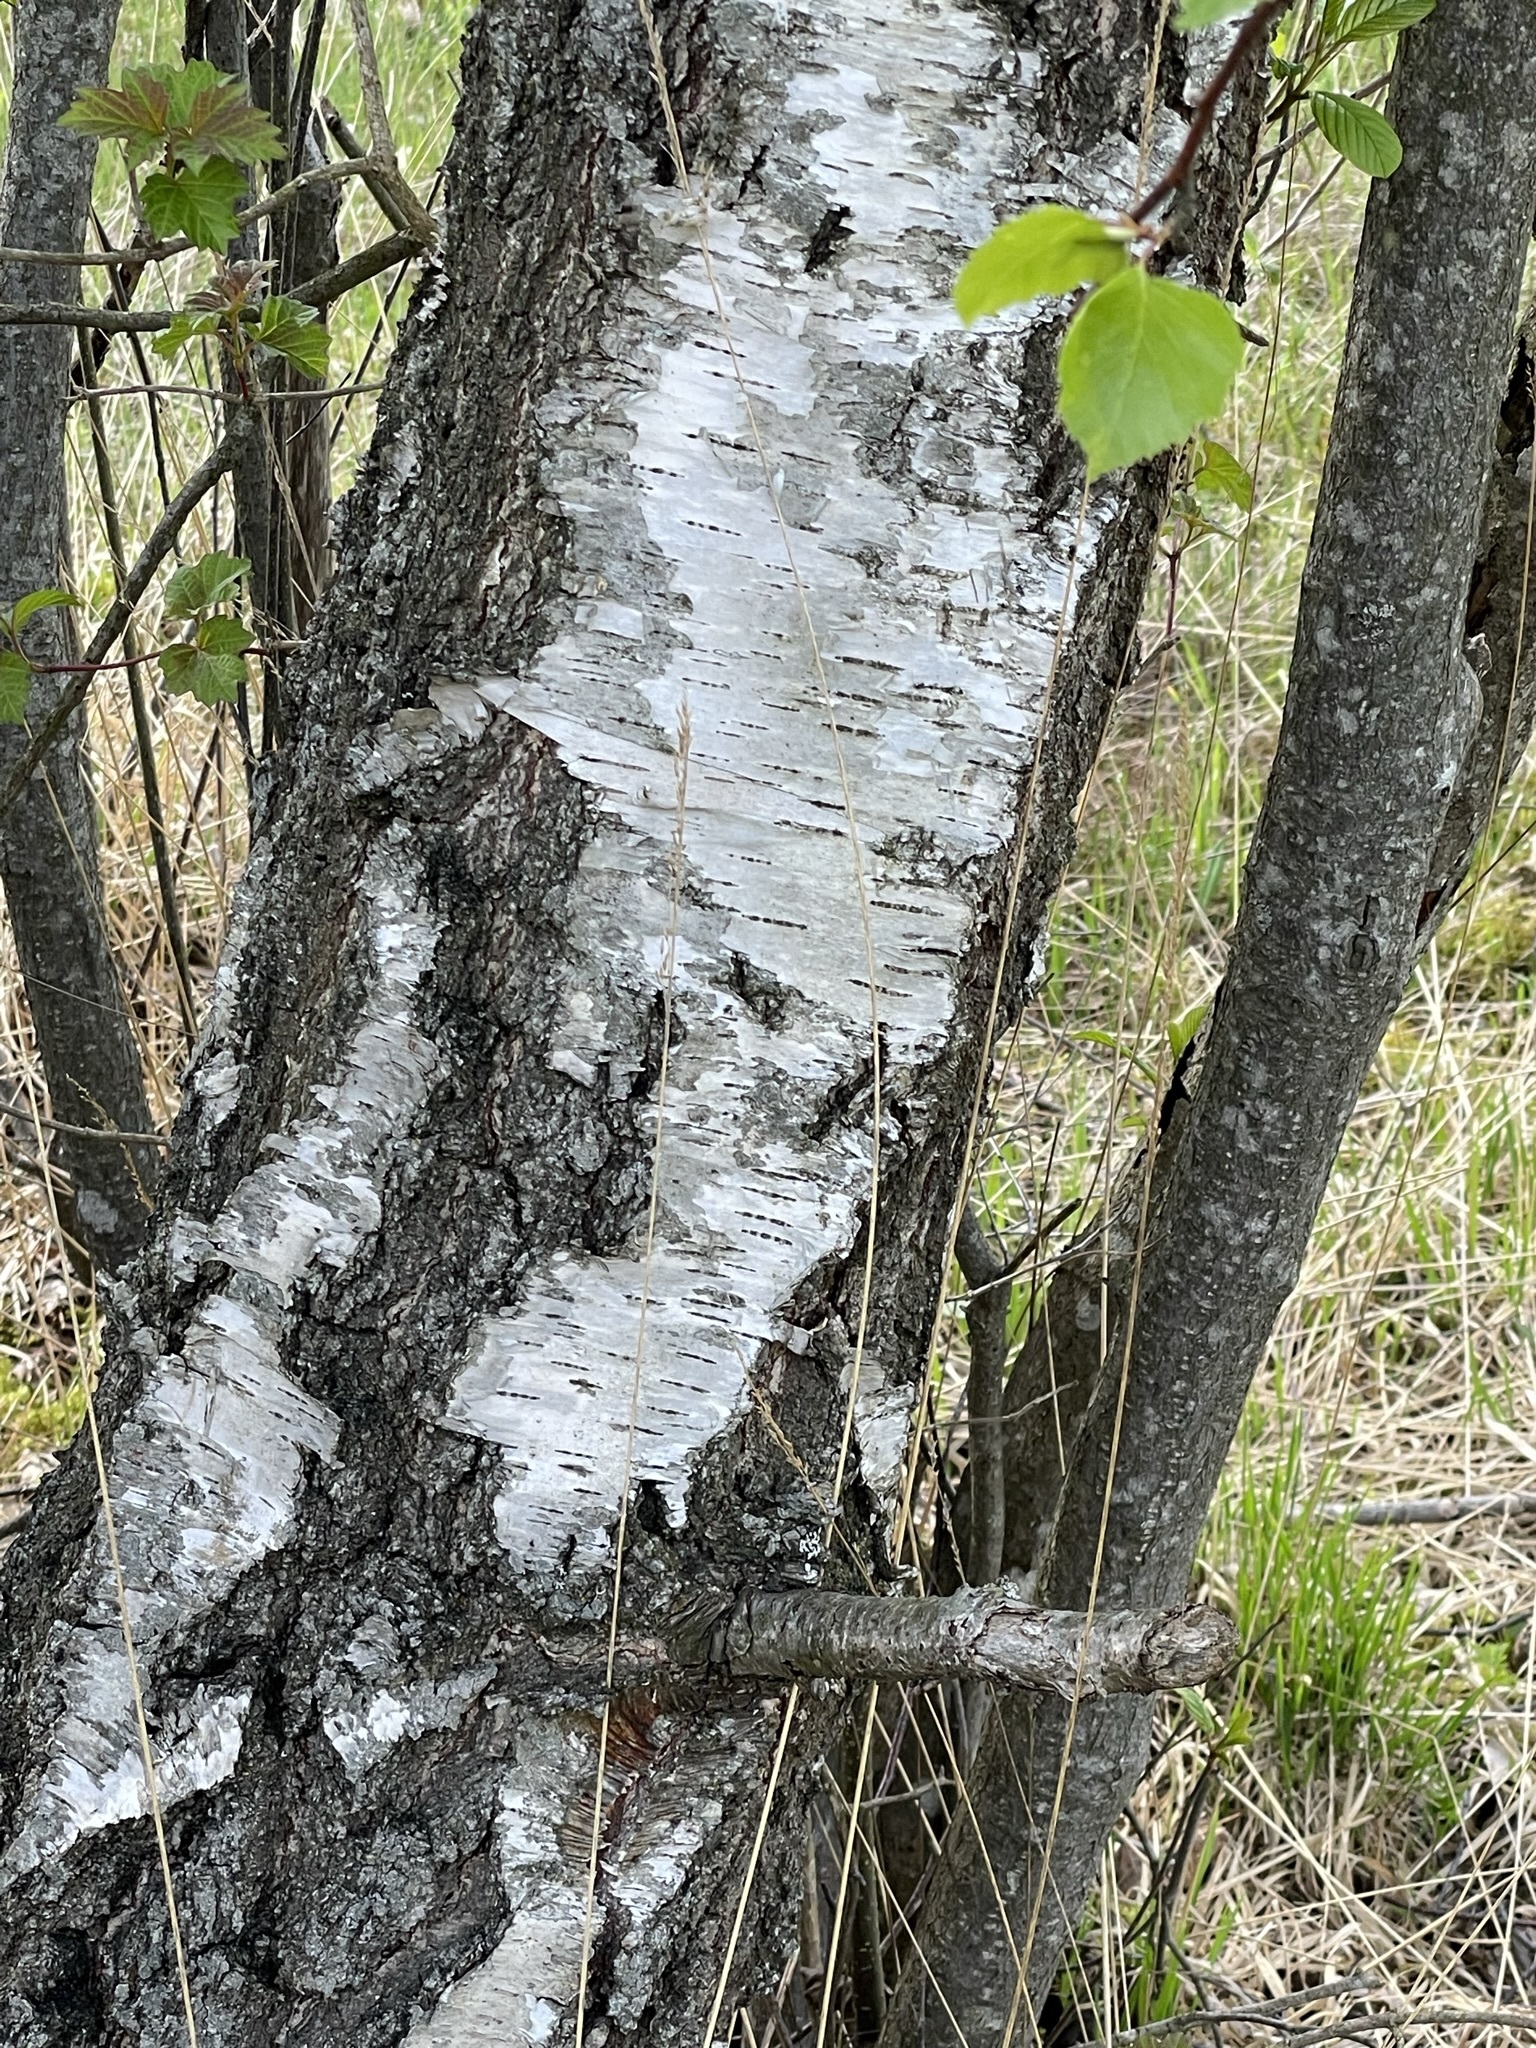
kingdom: Plantae
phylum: Tracheophyta
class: Magnoliopsida
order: Fagales
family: Betulaceae
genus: Betula
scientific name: Betula pendula
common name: Silver birch
